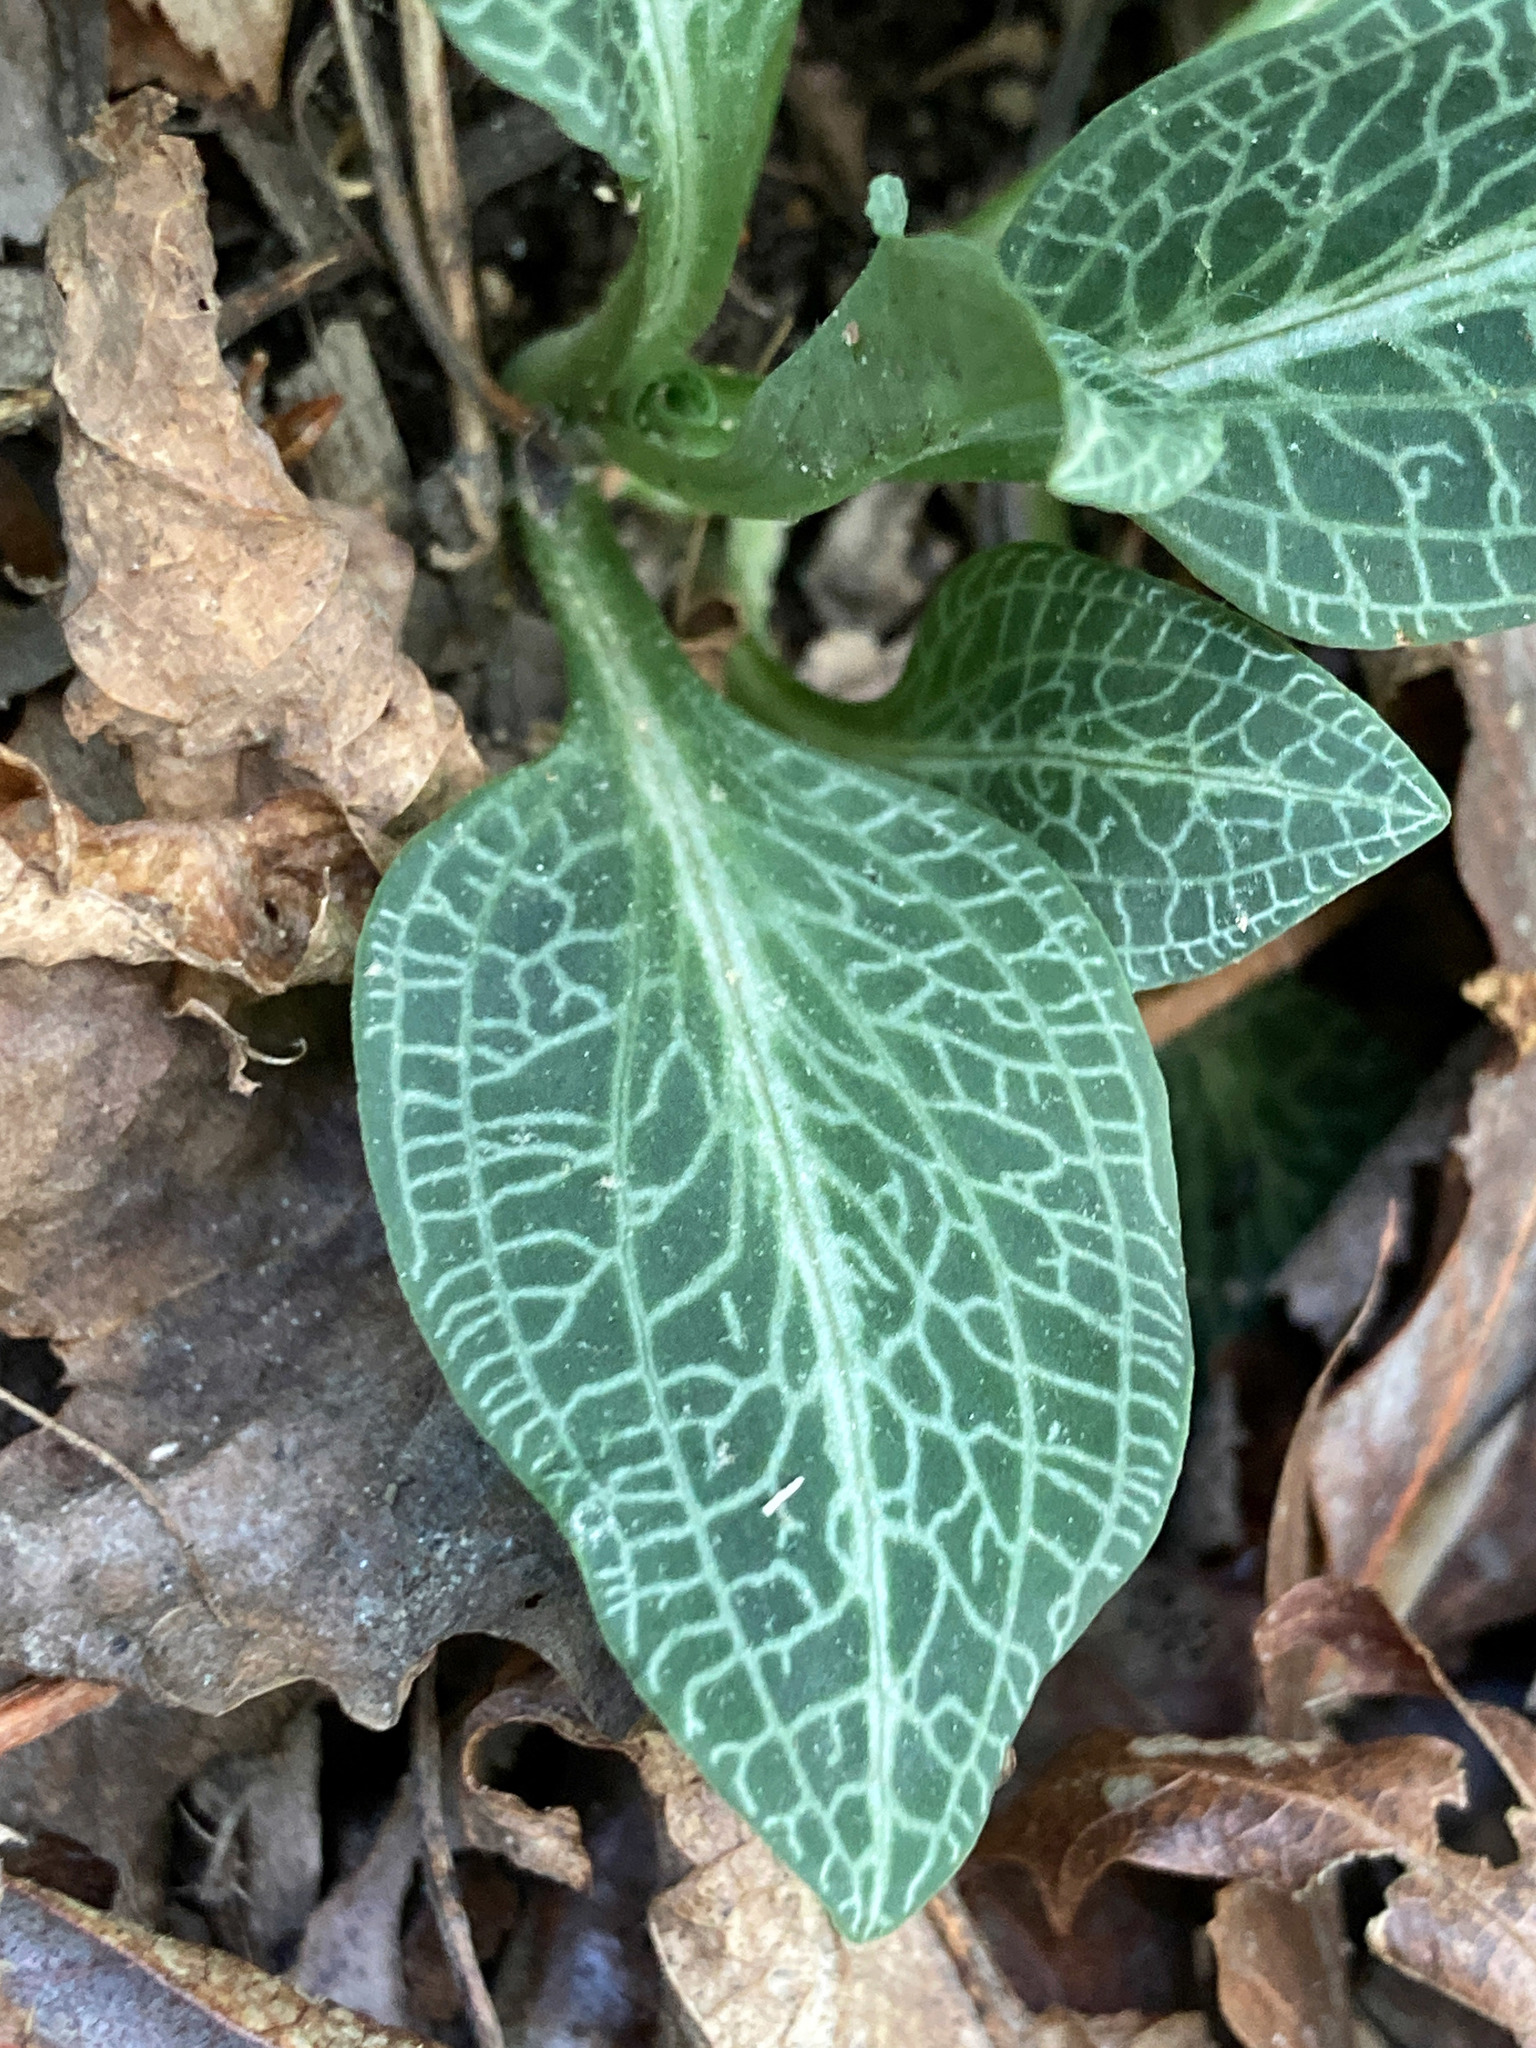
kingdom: Plantae
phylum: Tracheophyta
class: Liliopsida
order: Asparagales
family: Orchidaceae
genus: Goodyera
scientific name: Goodyera pubescens
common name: Downy rattlesnake-plantain
